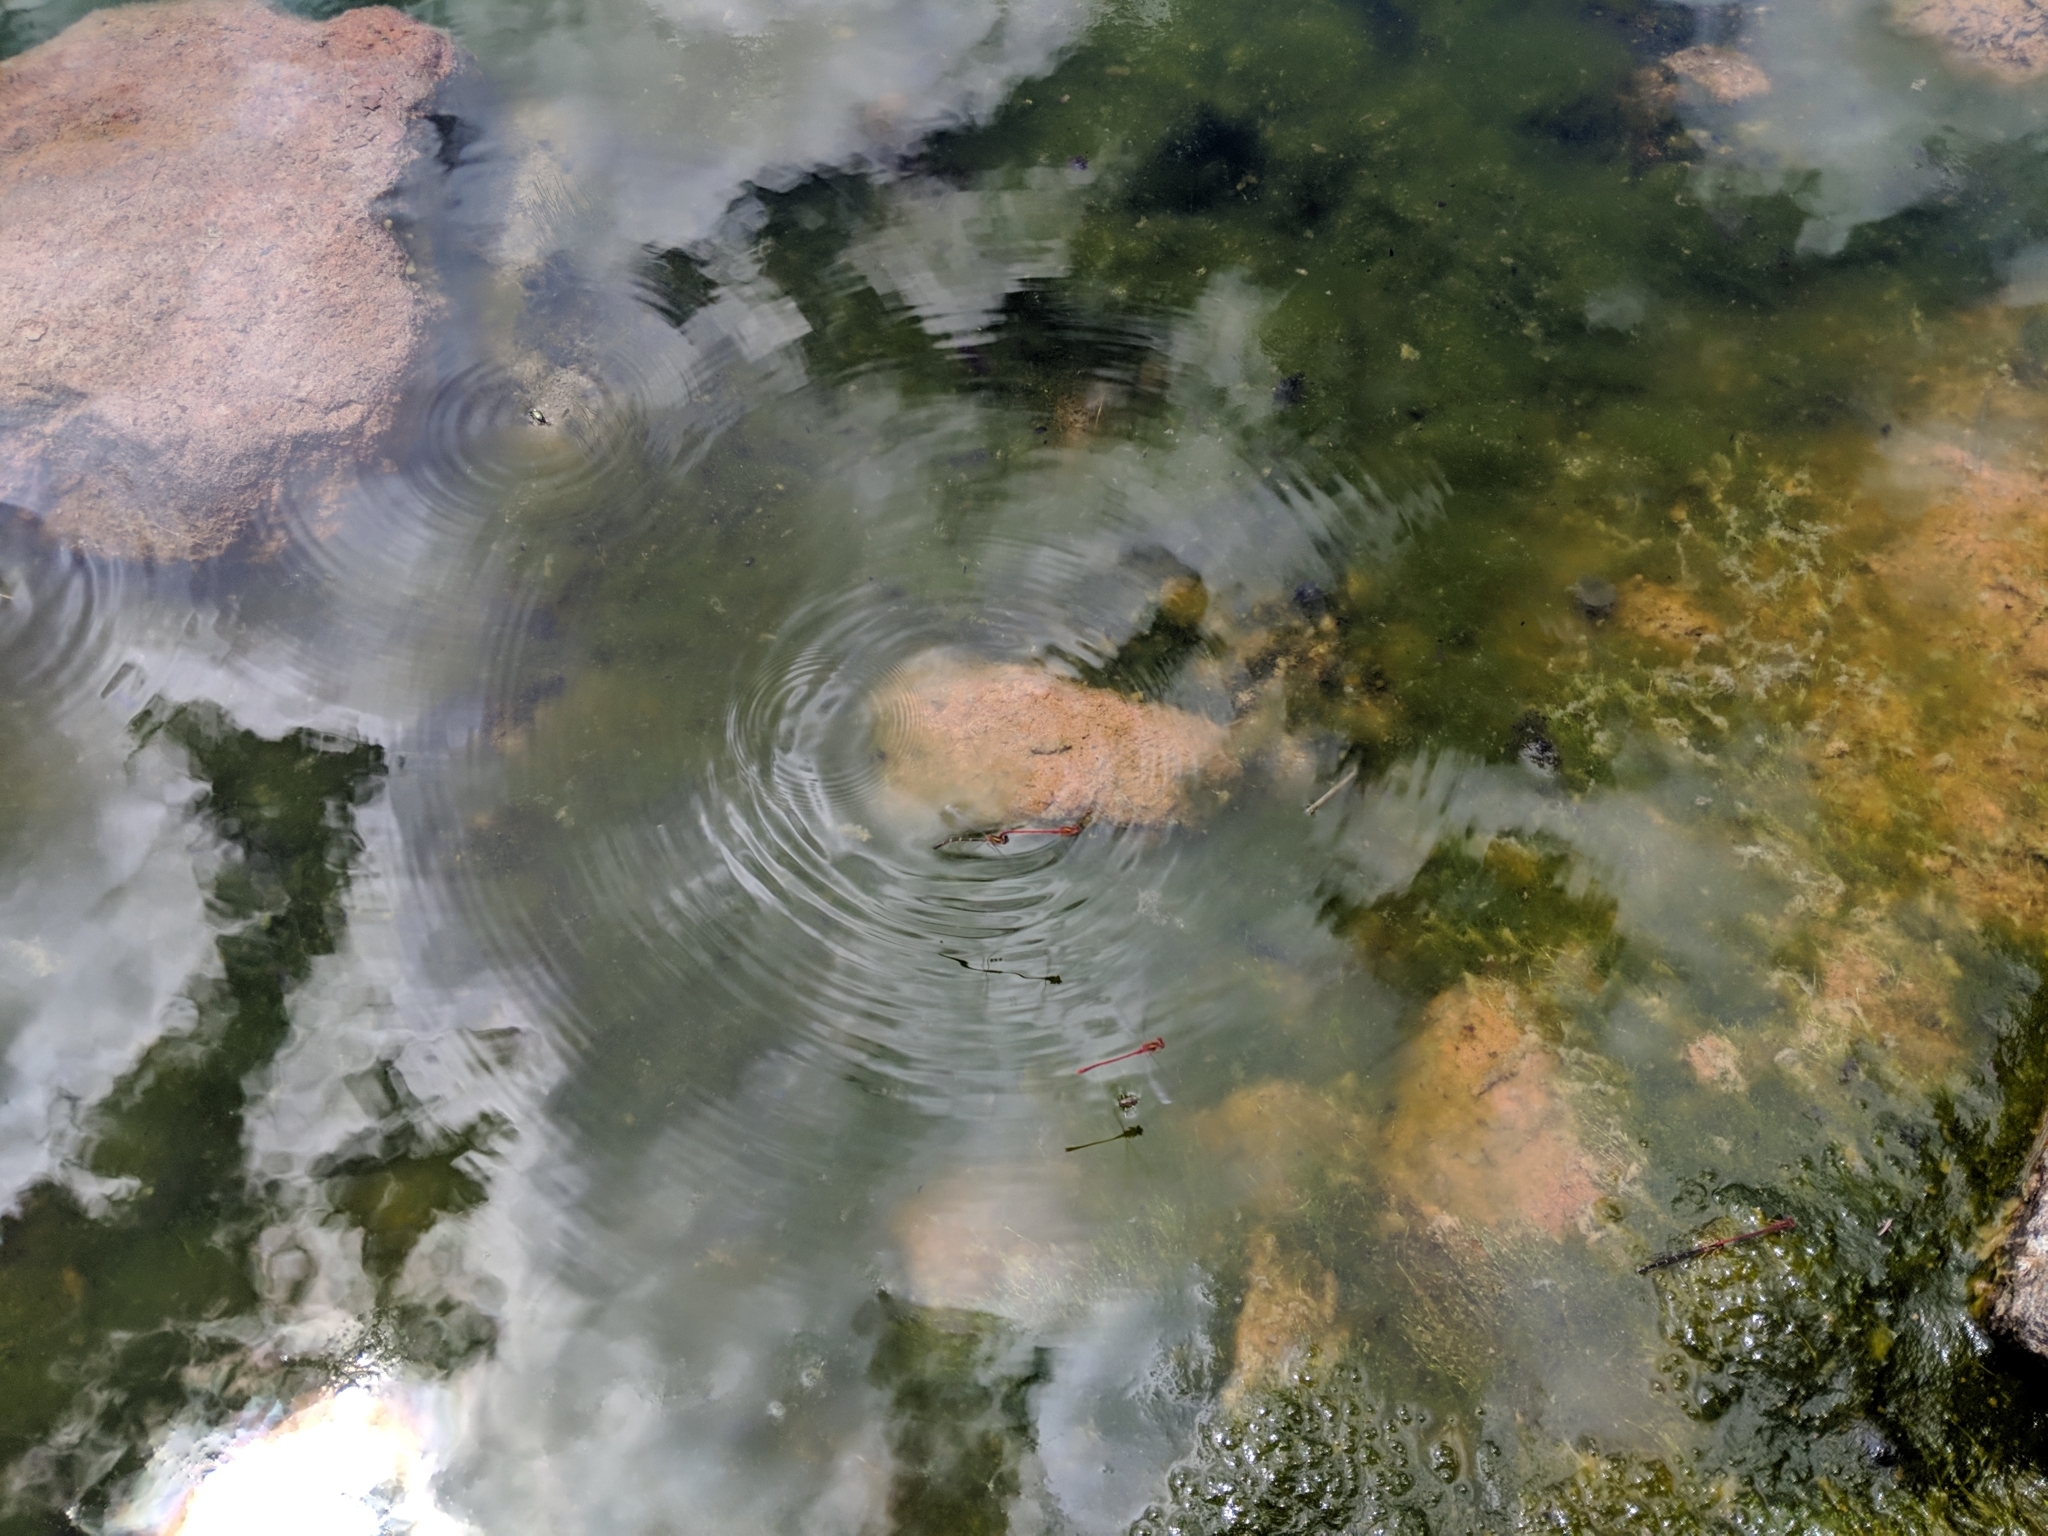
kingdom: Animalia
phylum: Arthropoda
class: Insecta
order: Odonata
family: Coenagrionidae
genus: Xanthocnemis
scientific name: Xanthocnemis zealandica
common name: Common redcoat damselfly
